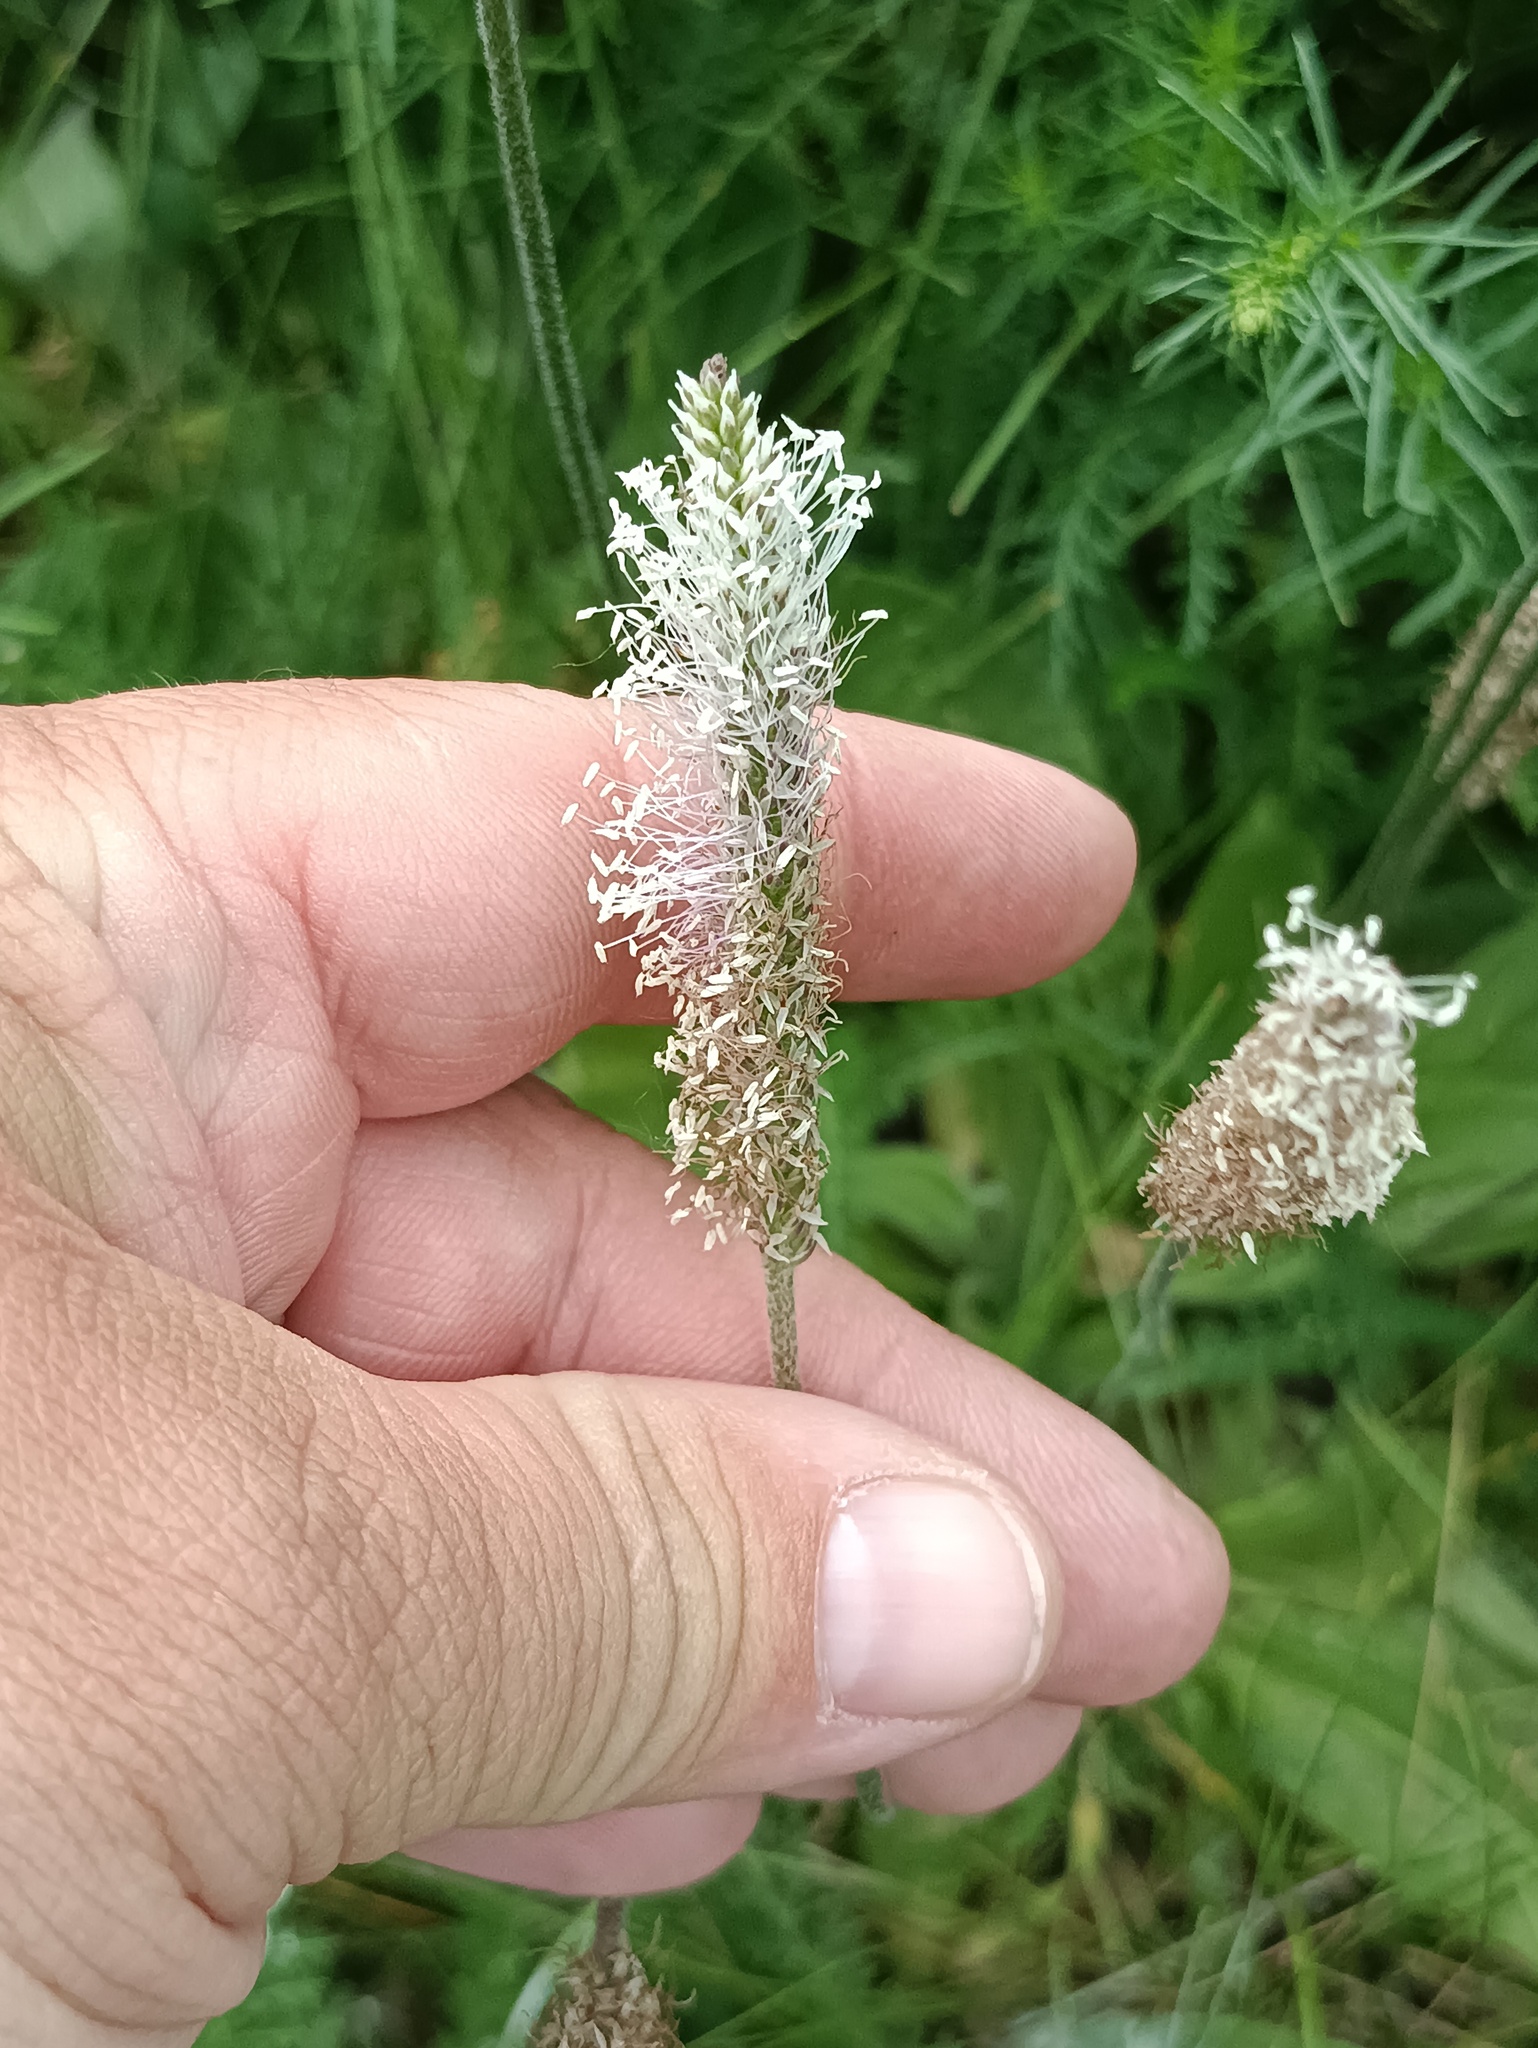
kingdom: Plantae
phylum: Tracheophyta
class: Magnoliopsida
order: Lamiales
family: Plantaginaceae
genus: Plantago
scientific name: Plantago media
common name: Hoary plantain
